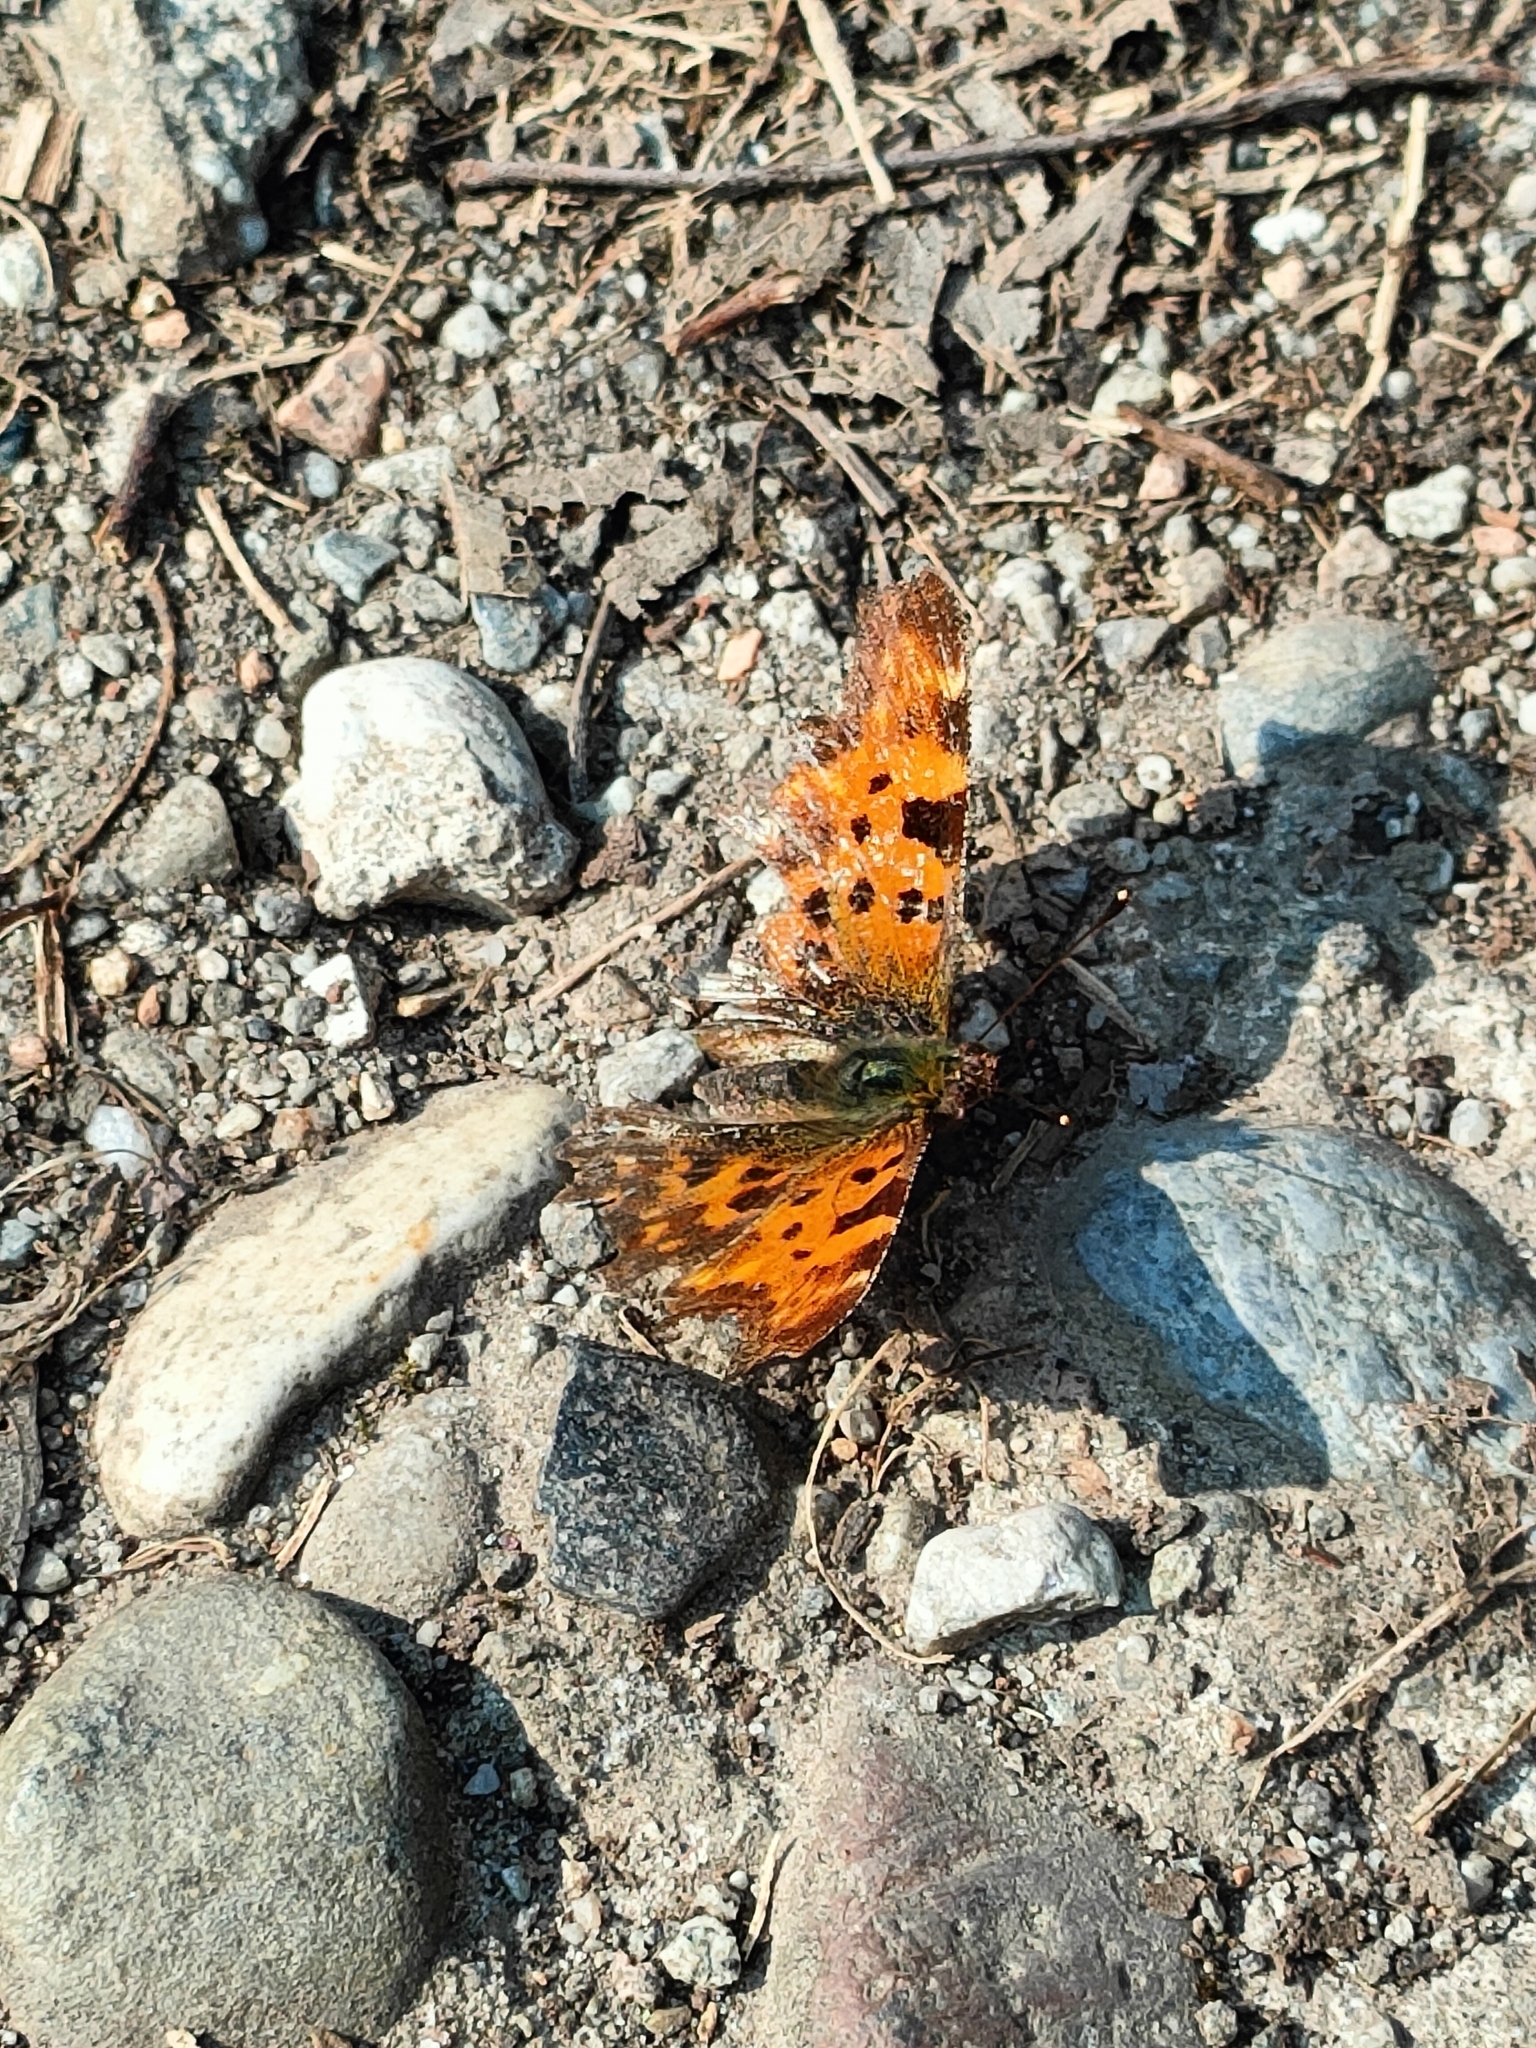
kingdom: Animalia
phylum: Arthropoda
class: Insecta
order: Lepidoptera
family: Nymphalidae
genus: Polygonia
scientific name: Polygonia c-album
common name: Comma
